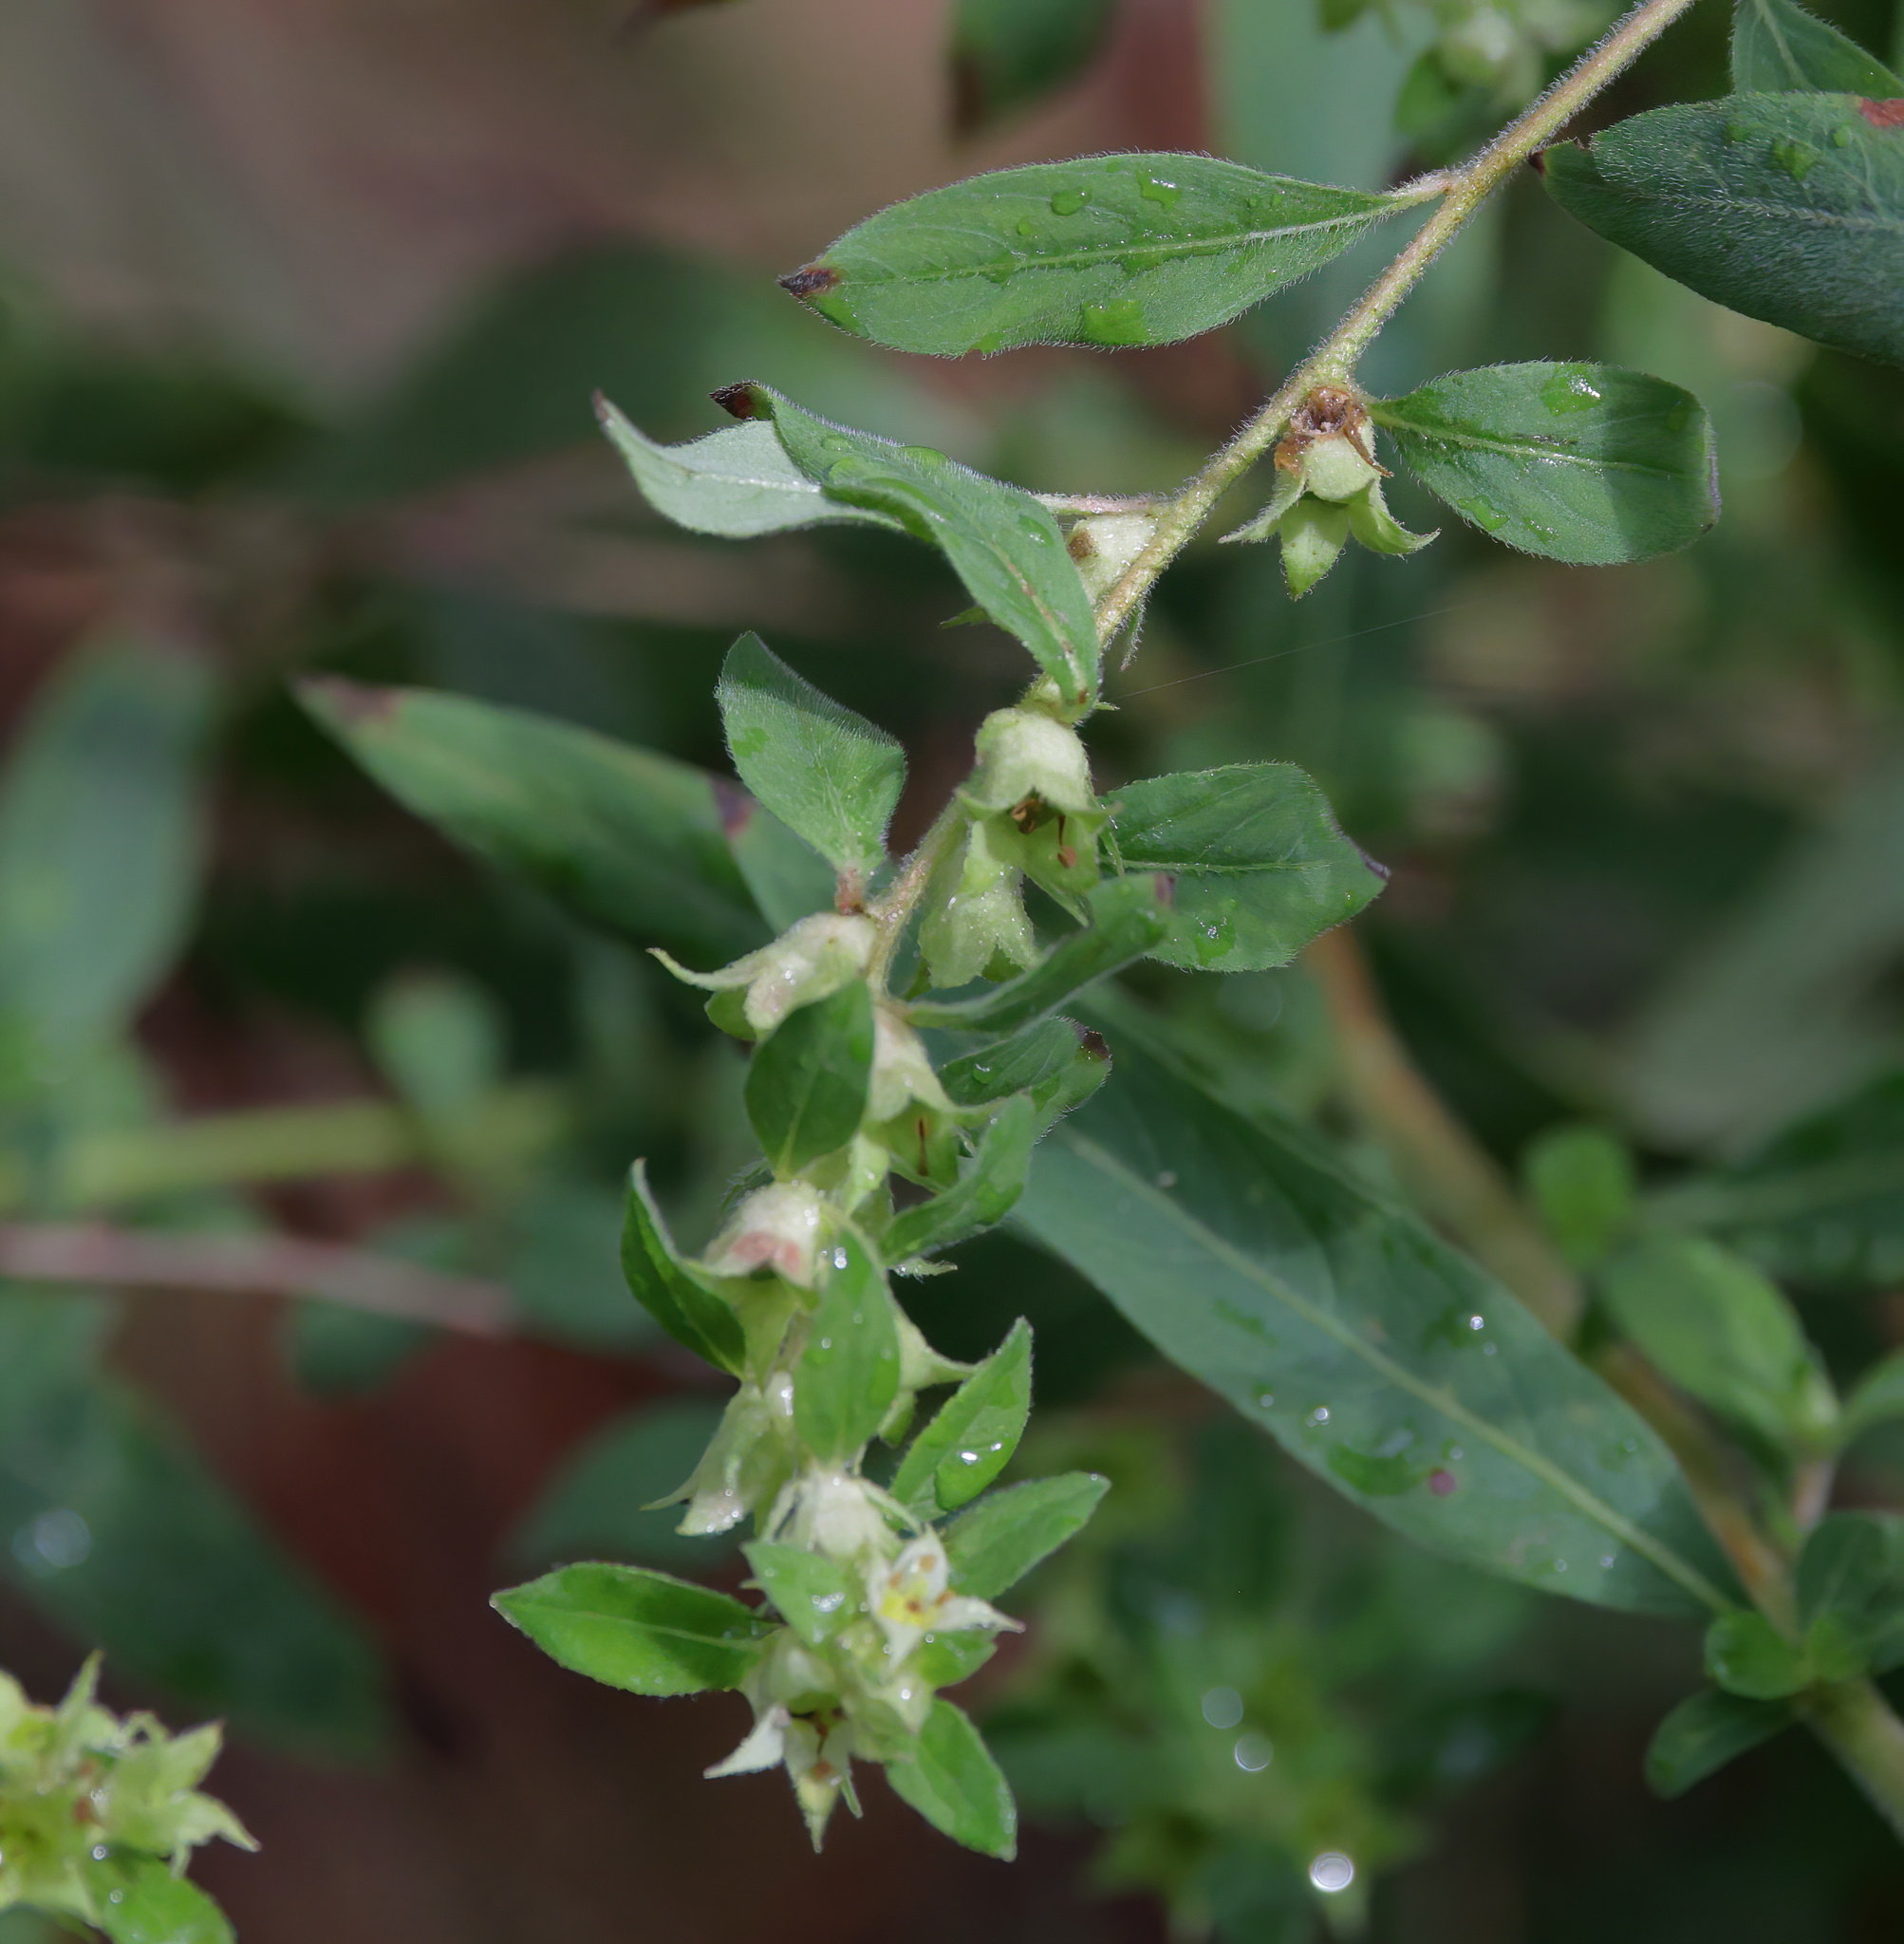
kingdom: Plantae
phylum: Tracheophyta
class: Magnoliopsida
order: Myrtales
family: Onagraceae
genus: Ludwigia
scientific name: Ludwigia pilosa
